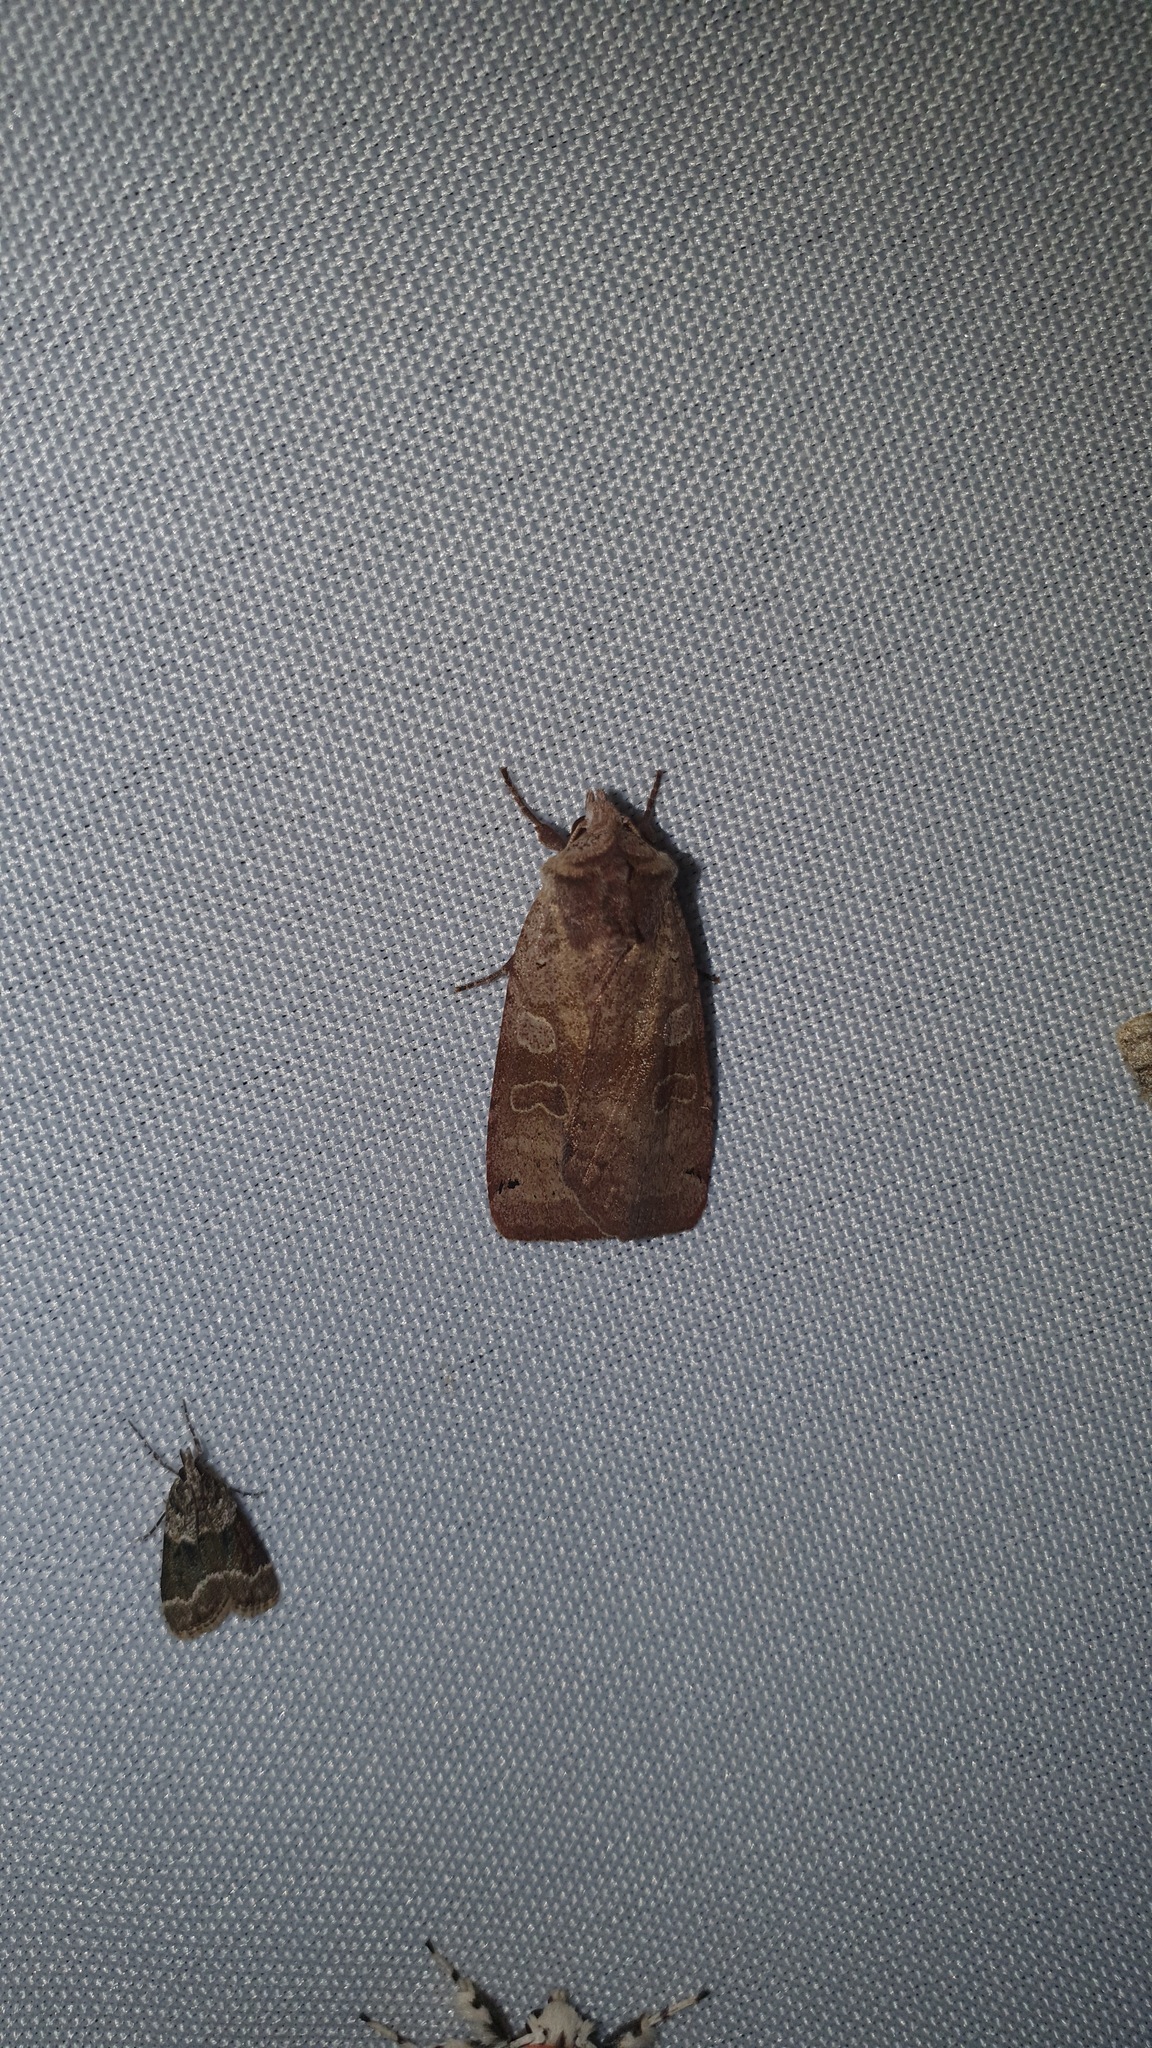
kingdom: Animalia
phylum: Arthropoda
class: Insecta
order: Lepidoptera
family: Noctuidae
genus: Xestia
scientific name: Xestia baja
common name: Dotted clay
